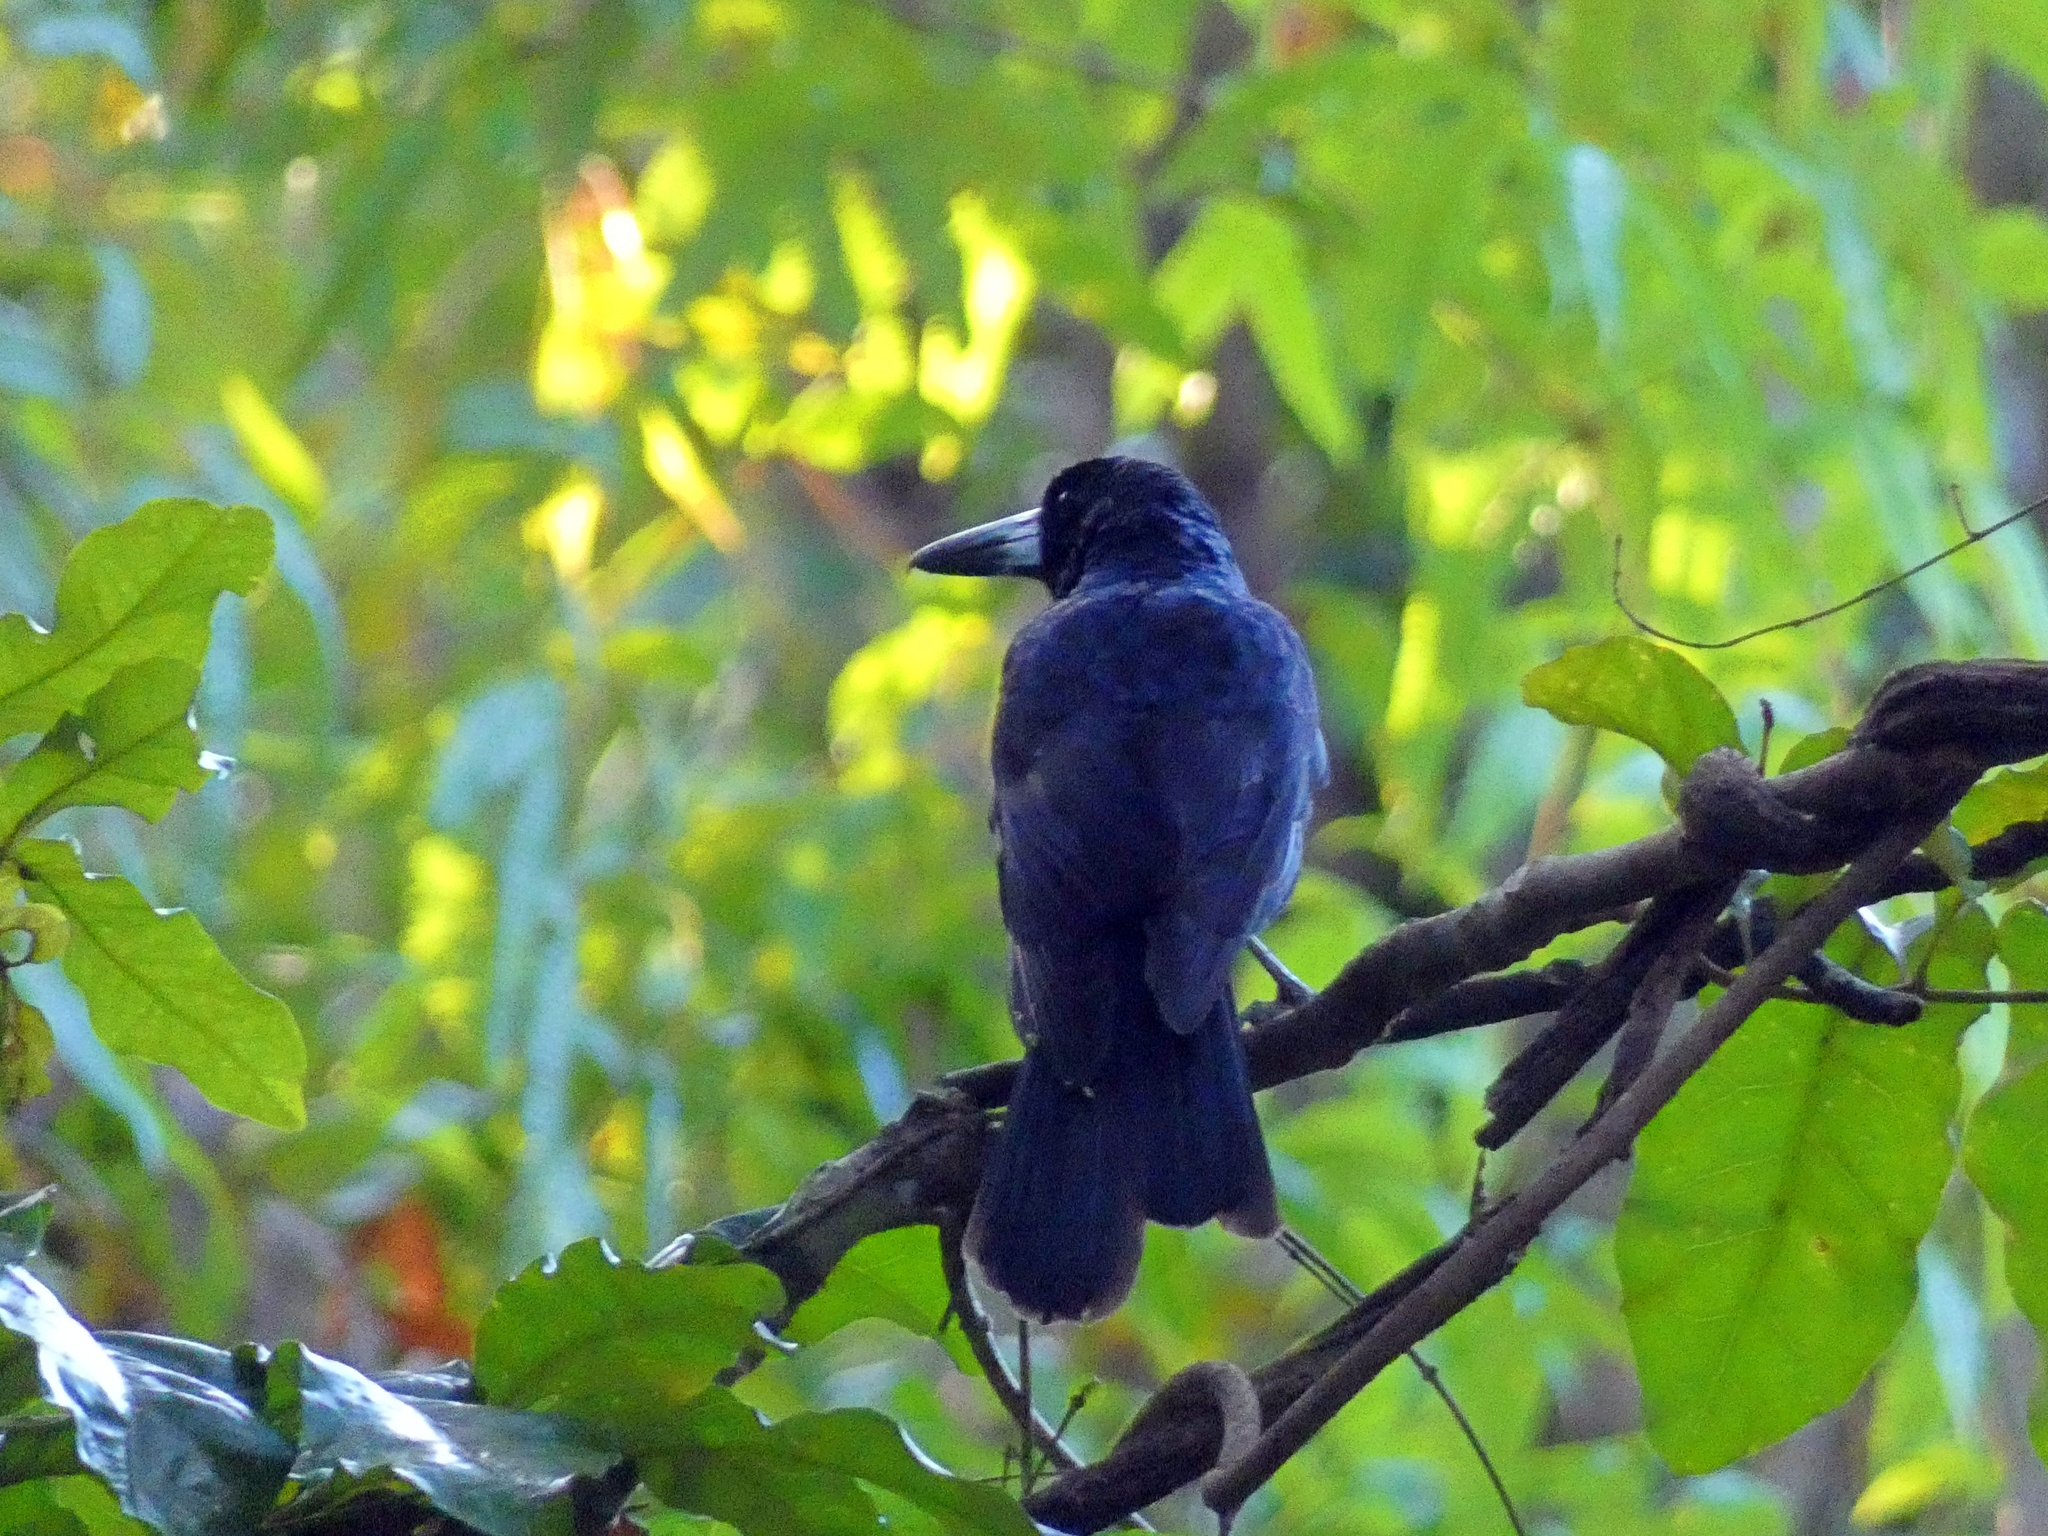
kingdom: Animalia
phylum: Chordata
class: Aves
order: Passeriformes
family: Artamidae
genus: Melloria
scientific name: Melloria quoyi
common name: Black butcherbird
